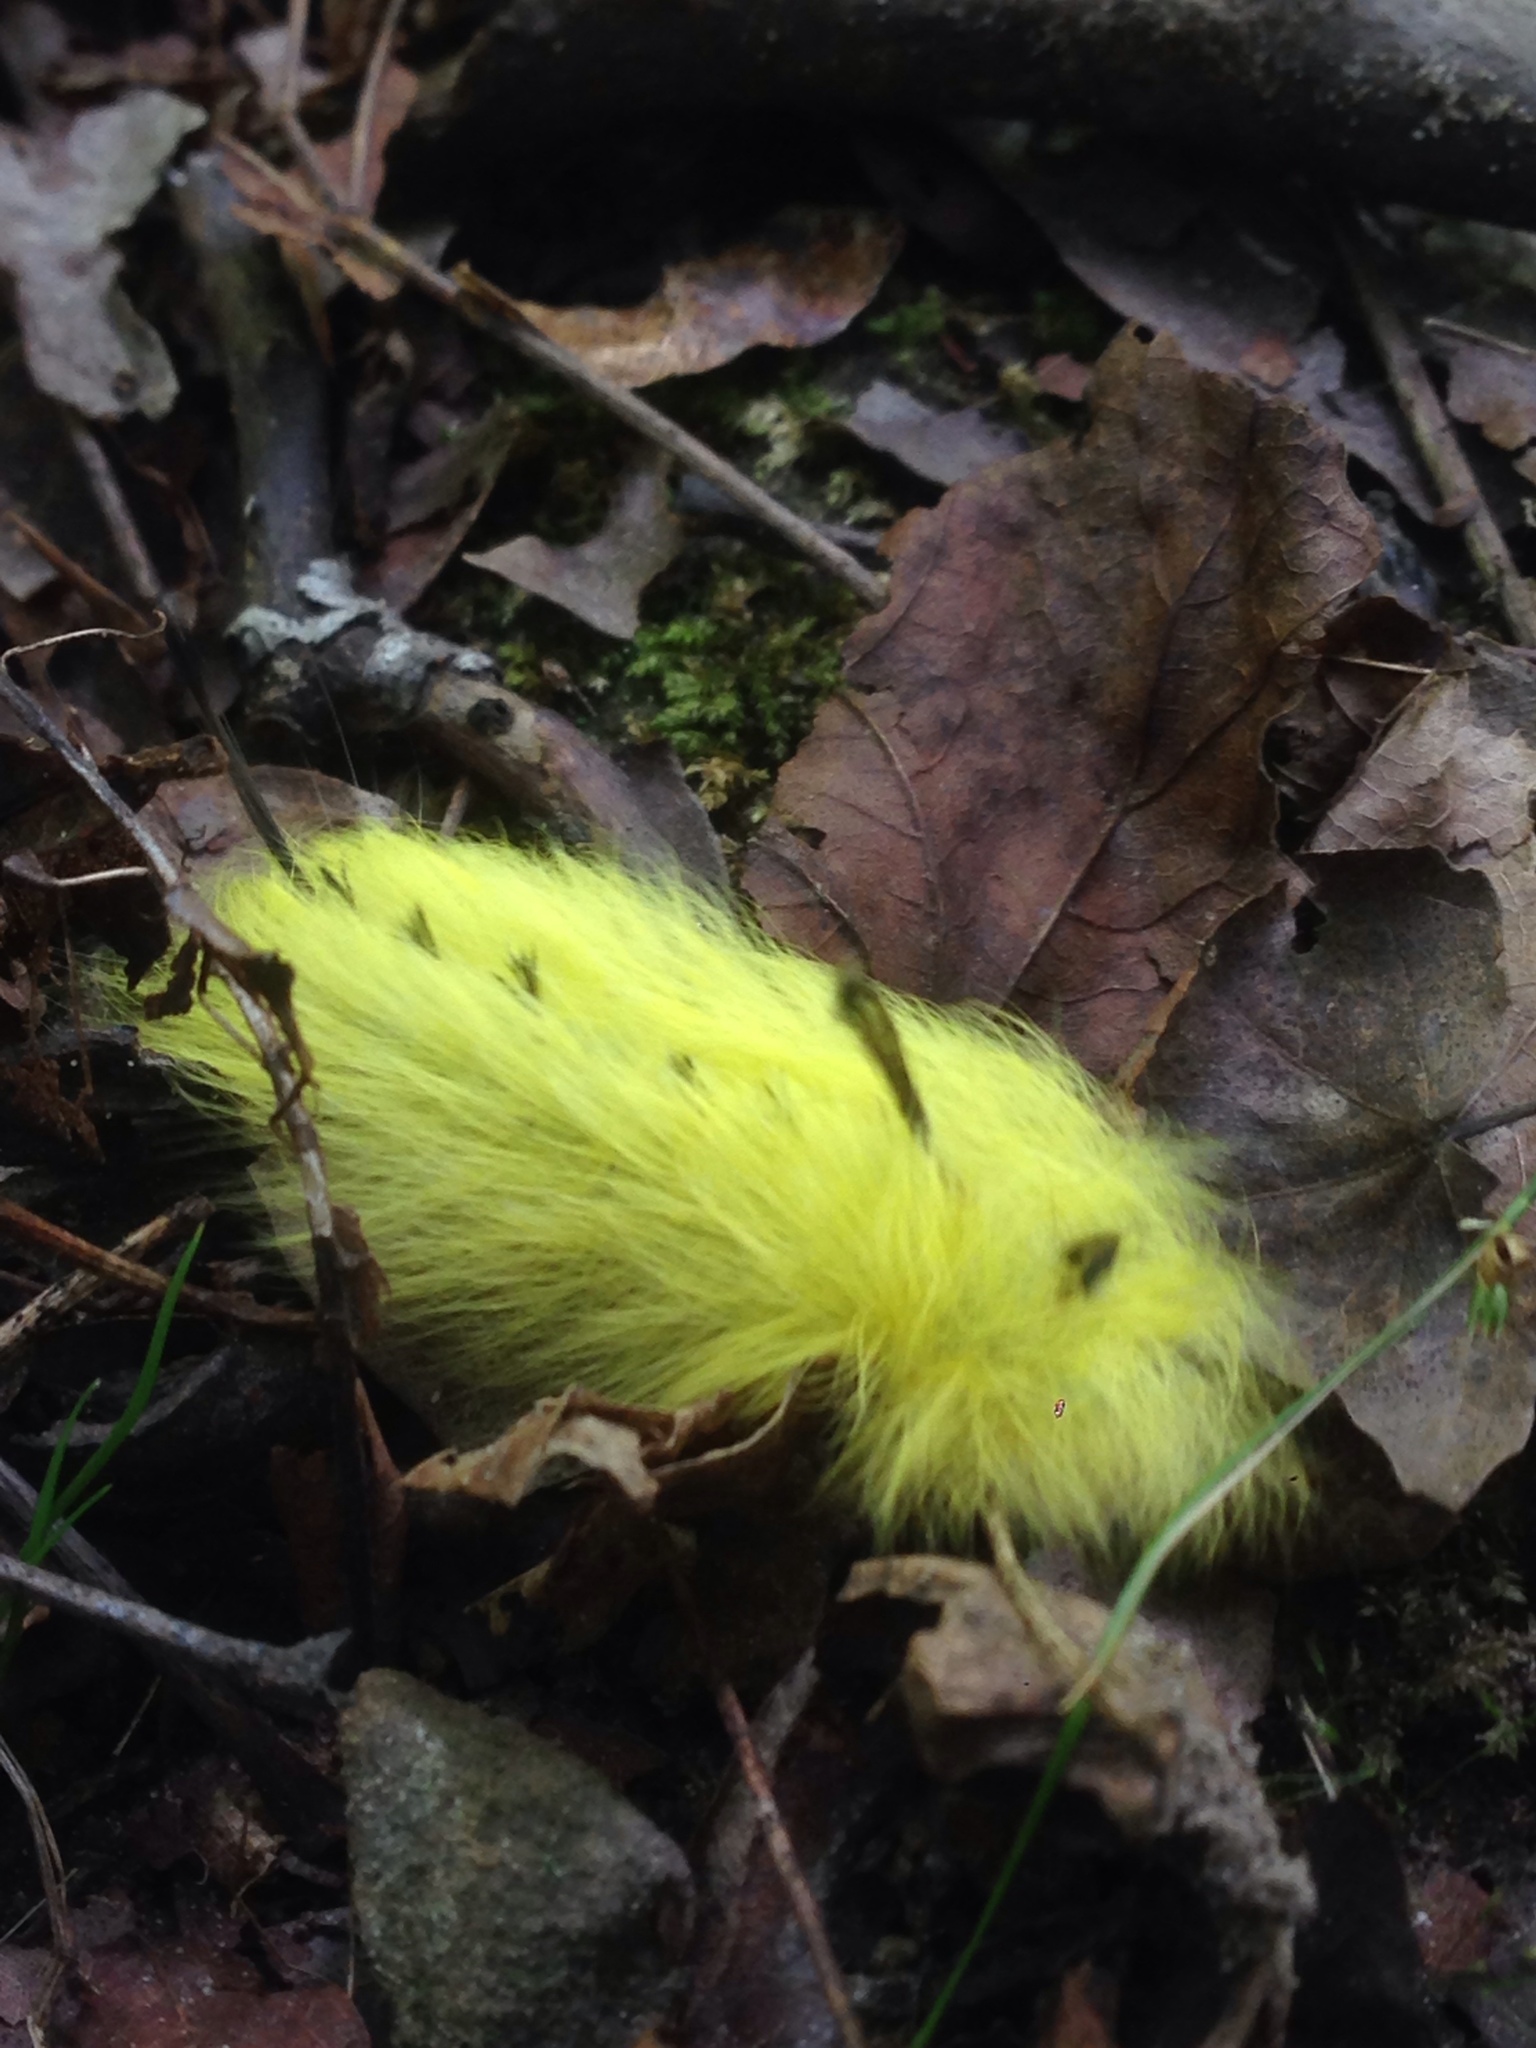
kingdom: Animalia
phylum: Arthropoda
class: Insecta
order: Lepidoptera
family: Apatelodidae
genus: Hygrochroa
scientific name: Hygrochroa Apatelodes torrefacta
